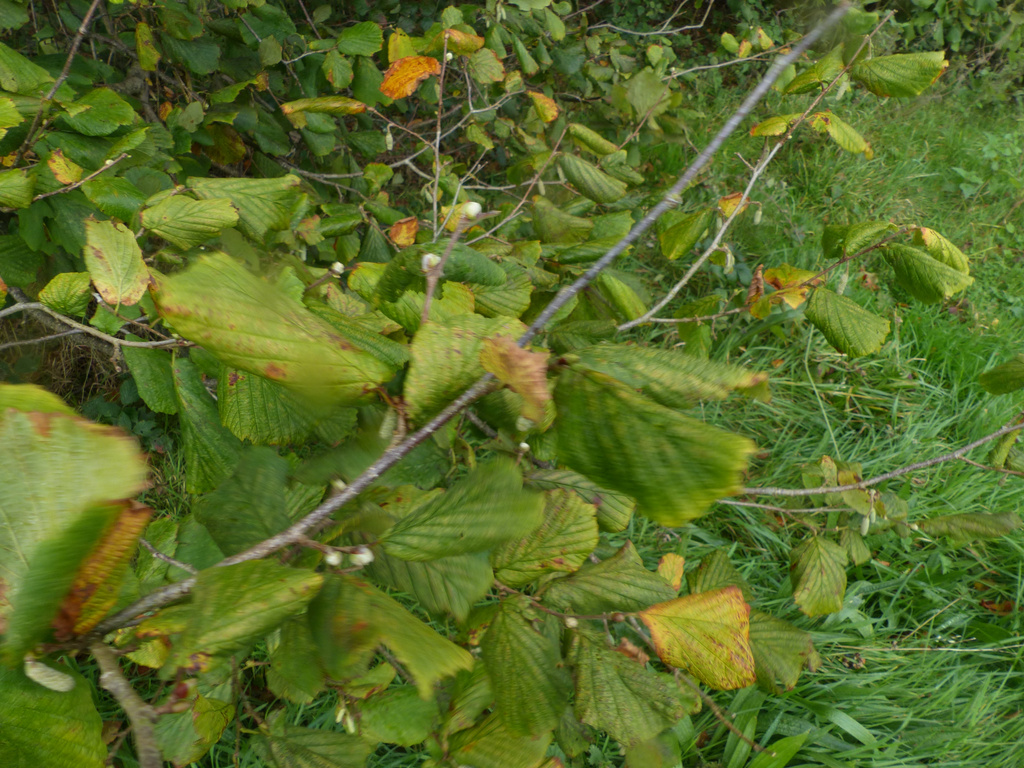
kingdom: Animalia
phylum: Arthropoda
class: Arachnida
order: Trombidiformes
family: Phytoptidae
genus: Phytoptus
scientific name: Phytoptus avellanae
